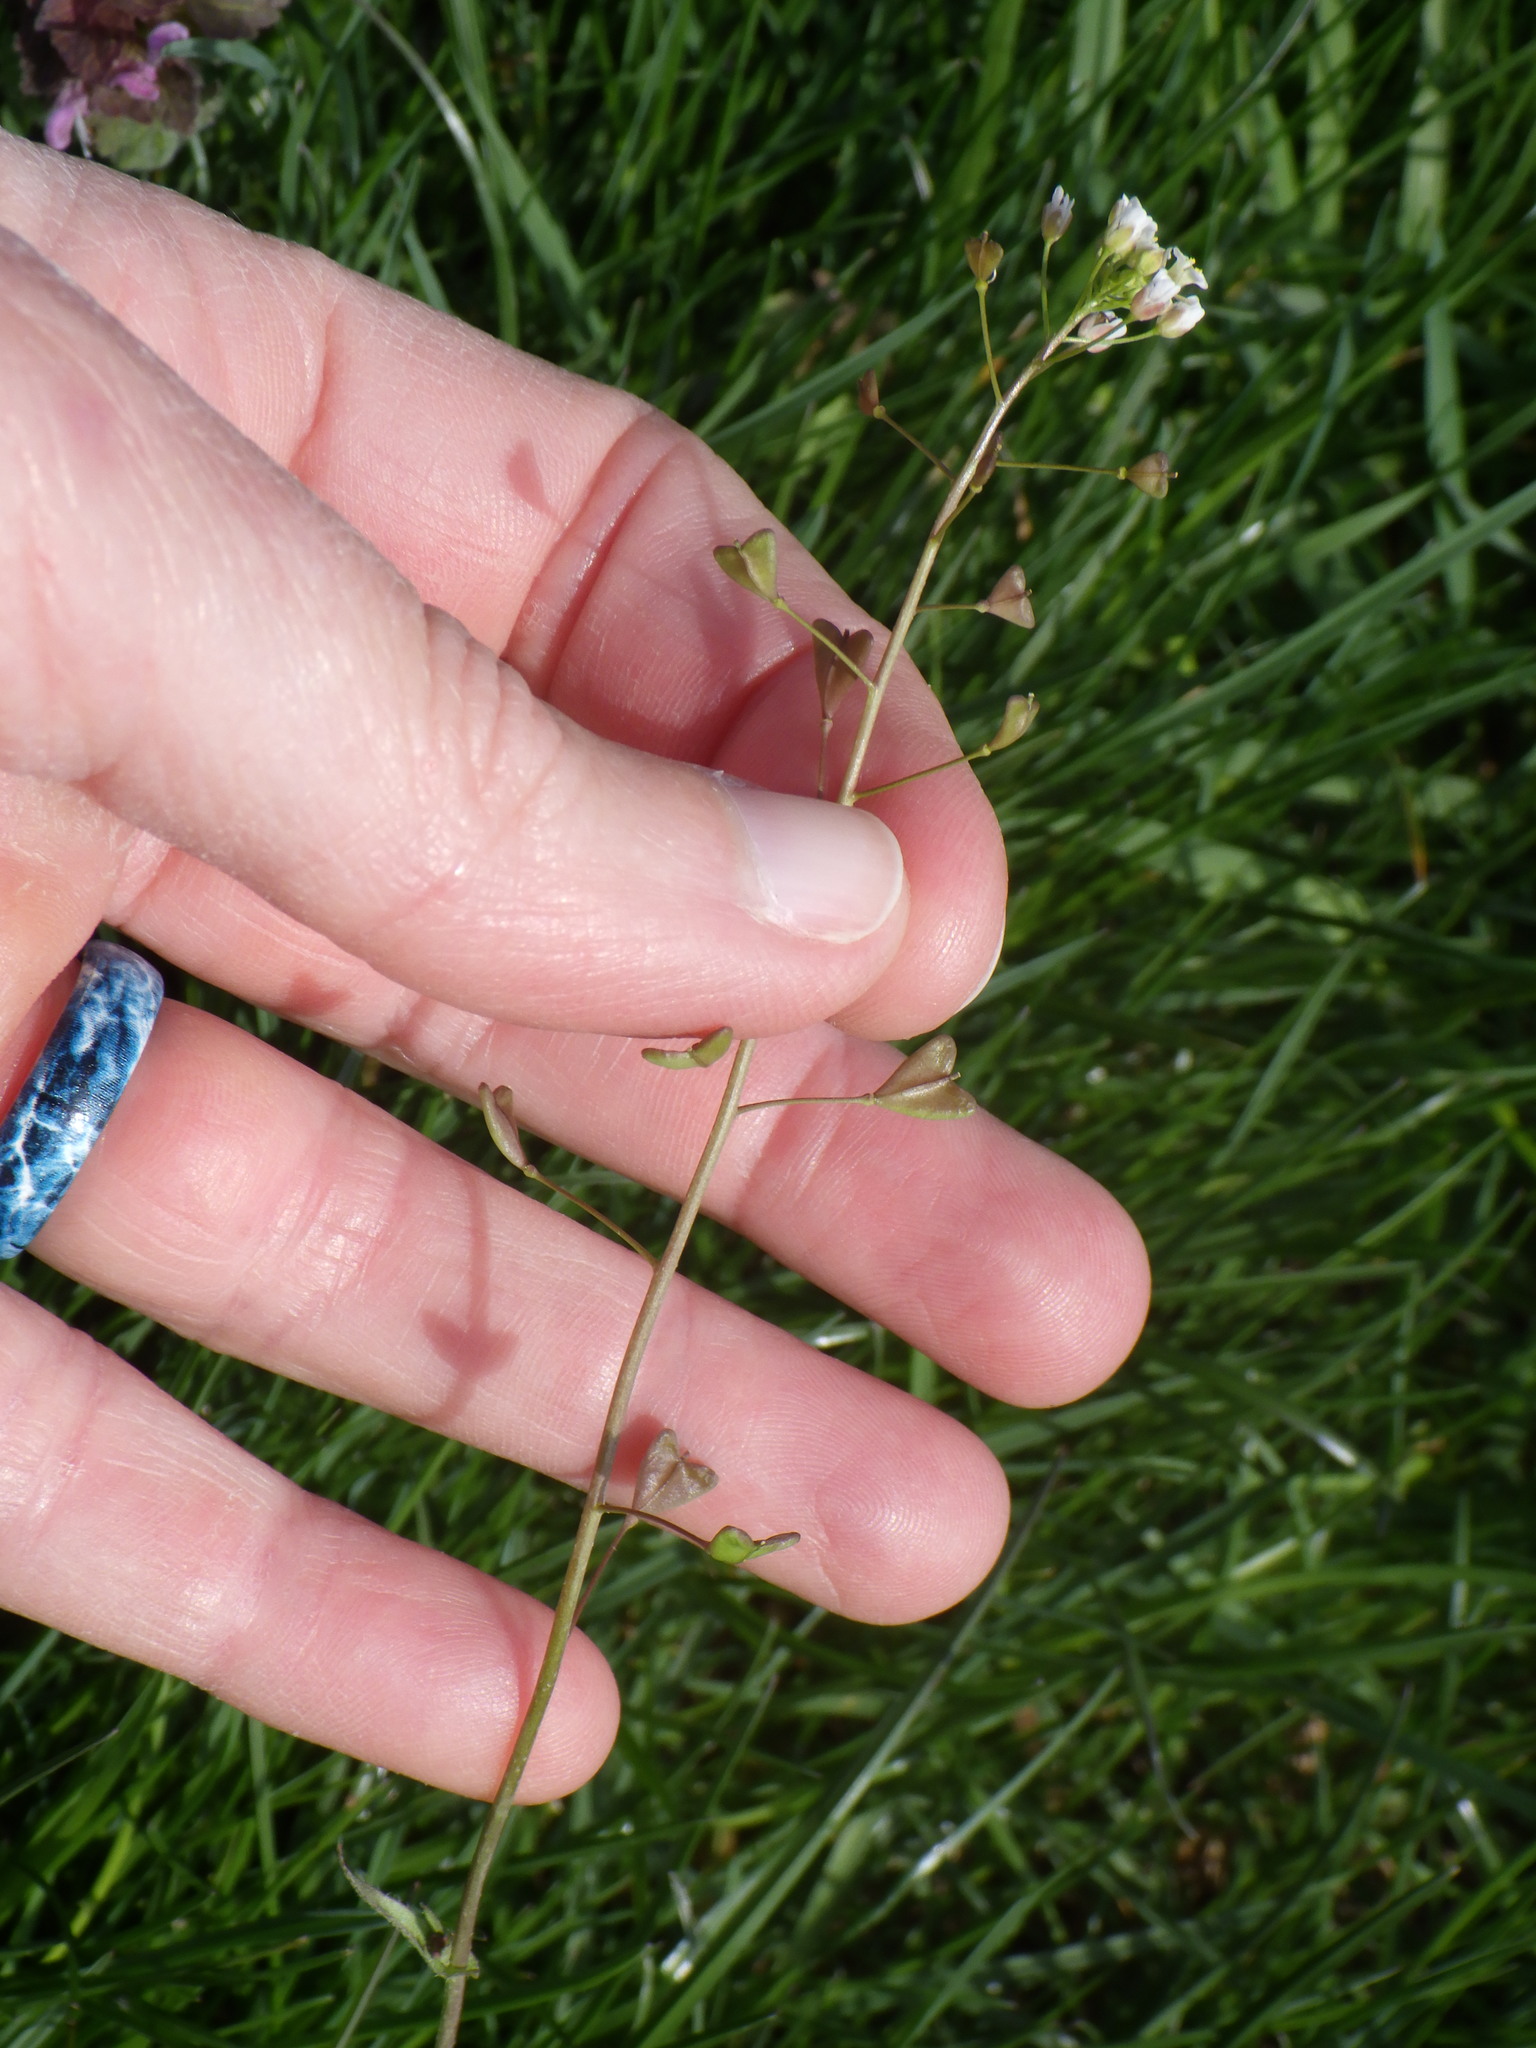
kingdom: Plantae
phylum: Tracheophyta
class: Magnoliopsida
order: Brassicales
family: Brassicaceae
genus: Capsella
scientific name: Capsella bursa-pastoris
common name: Shepherd's purse
